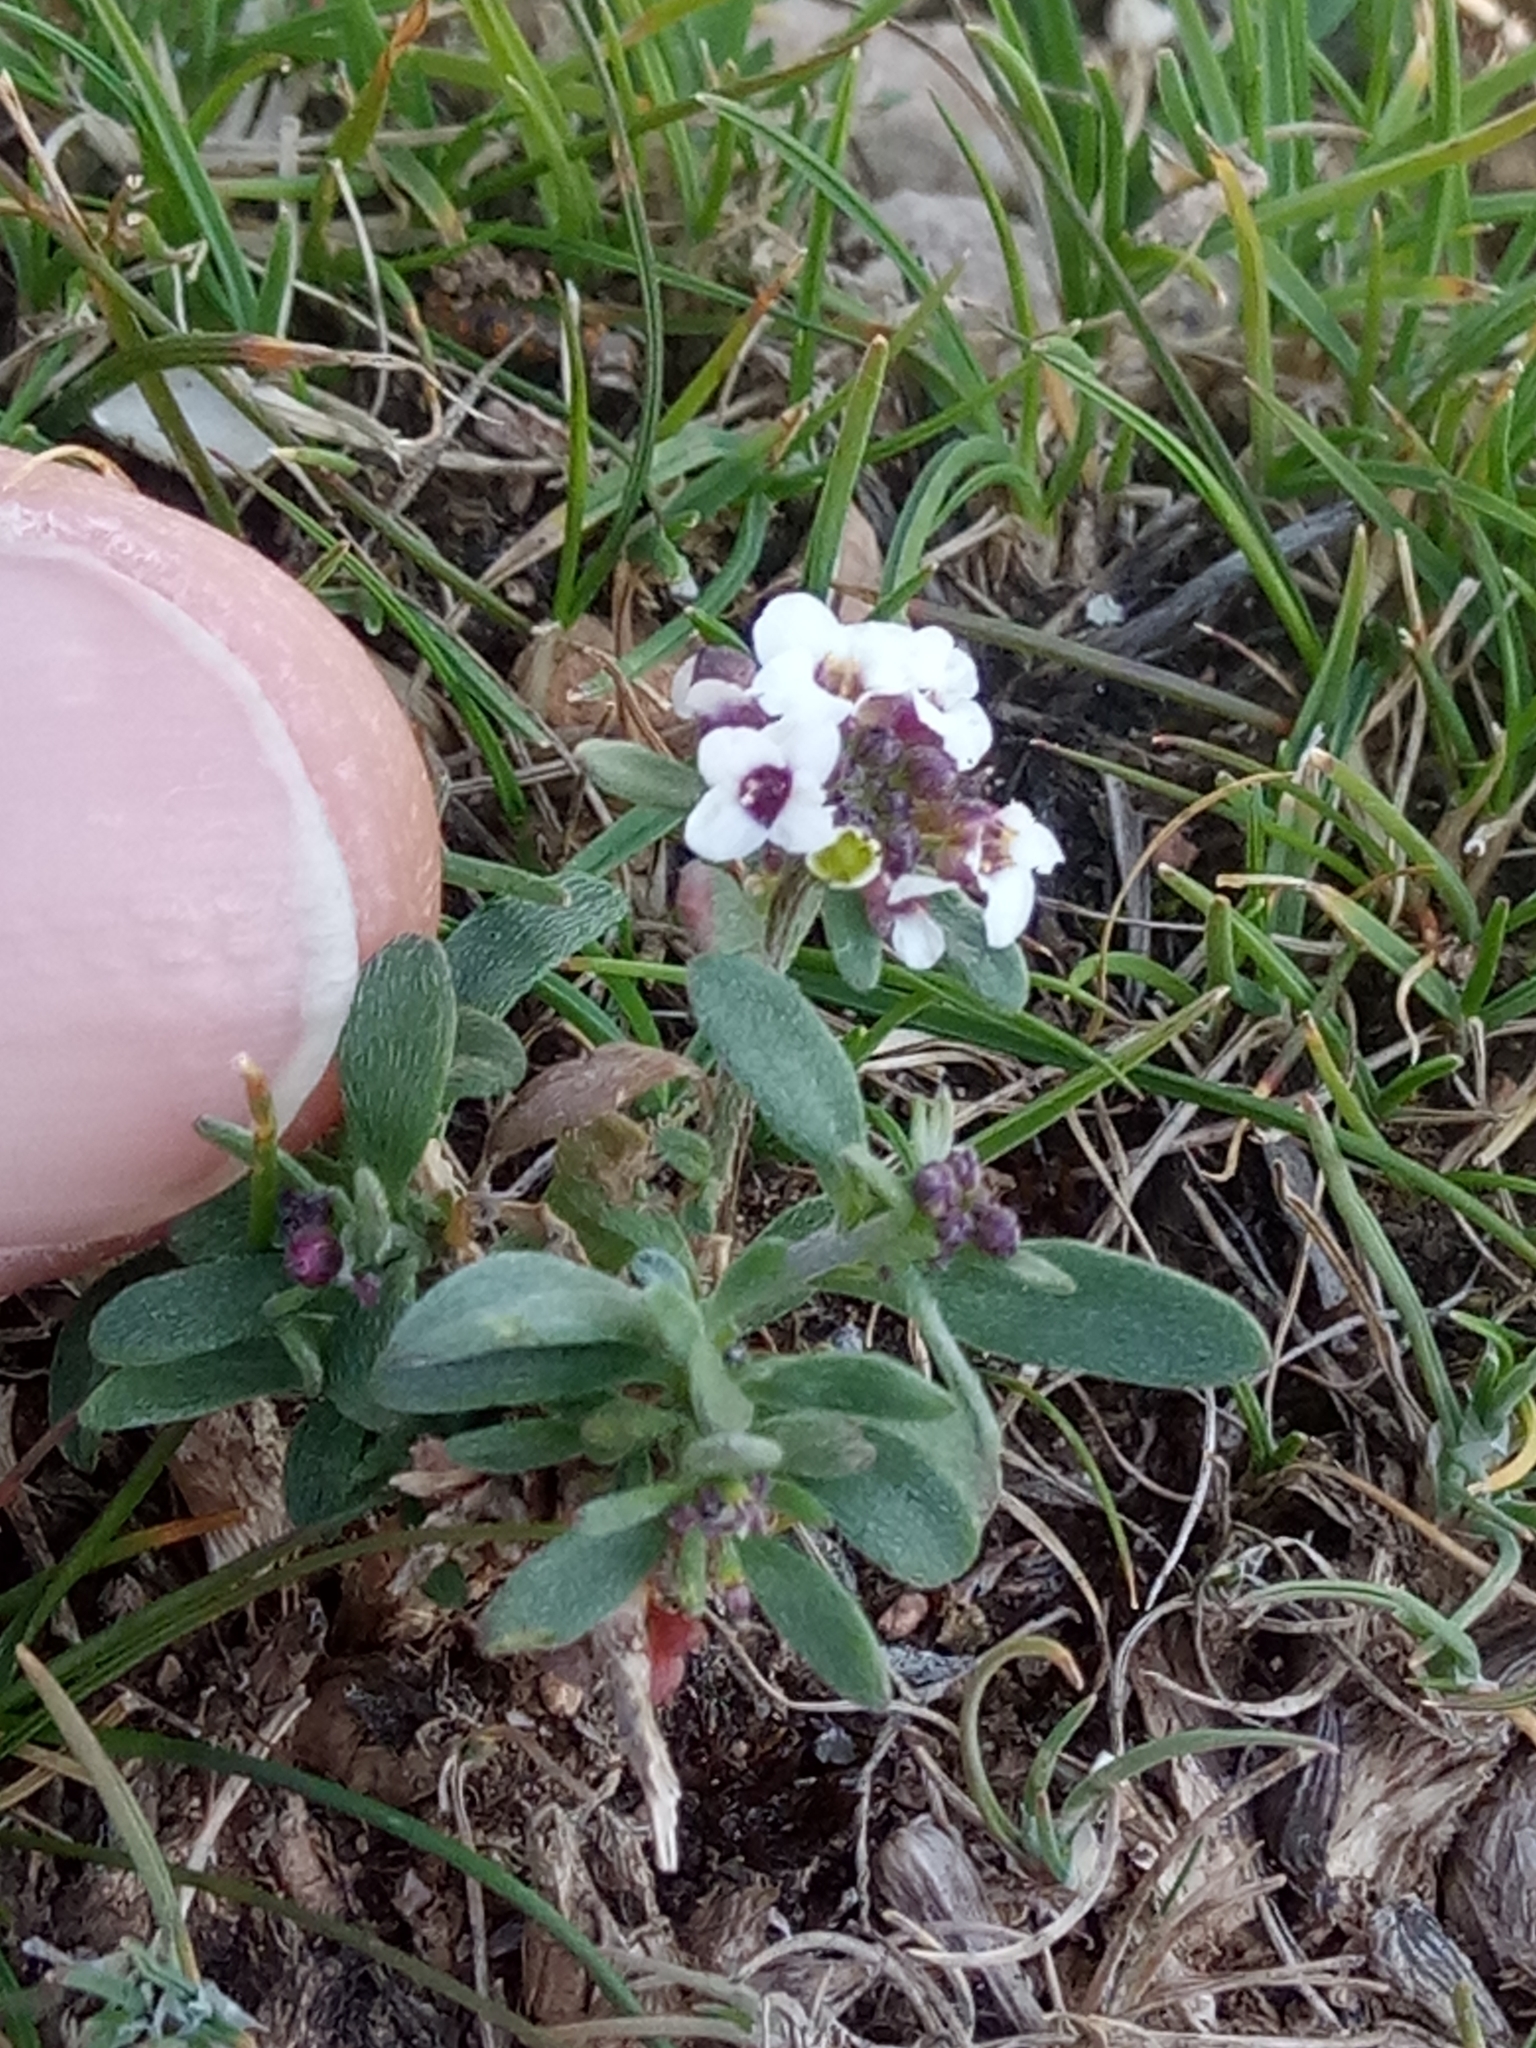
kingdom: Plantae
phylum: Tracheophyta
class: Magnoliopsida
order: Brassicales
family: Brassicaceae
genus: Lobularia
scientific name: Lobularia maritima
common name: Sweet alison
